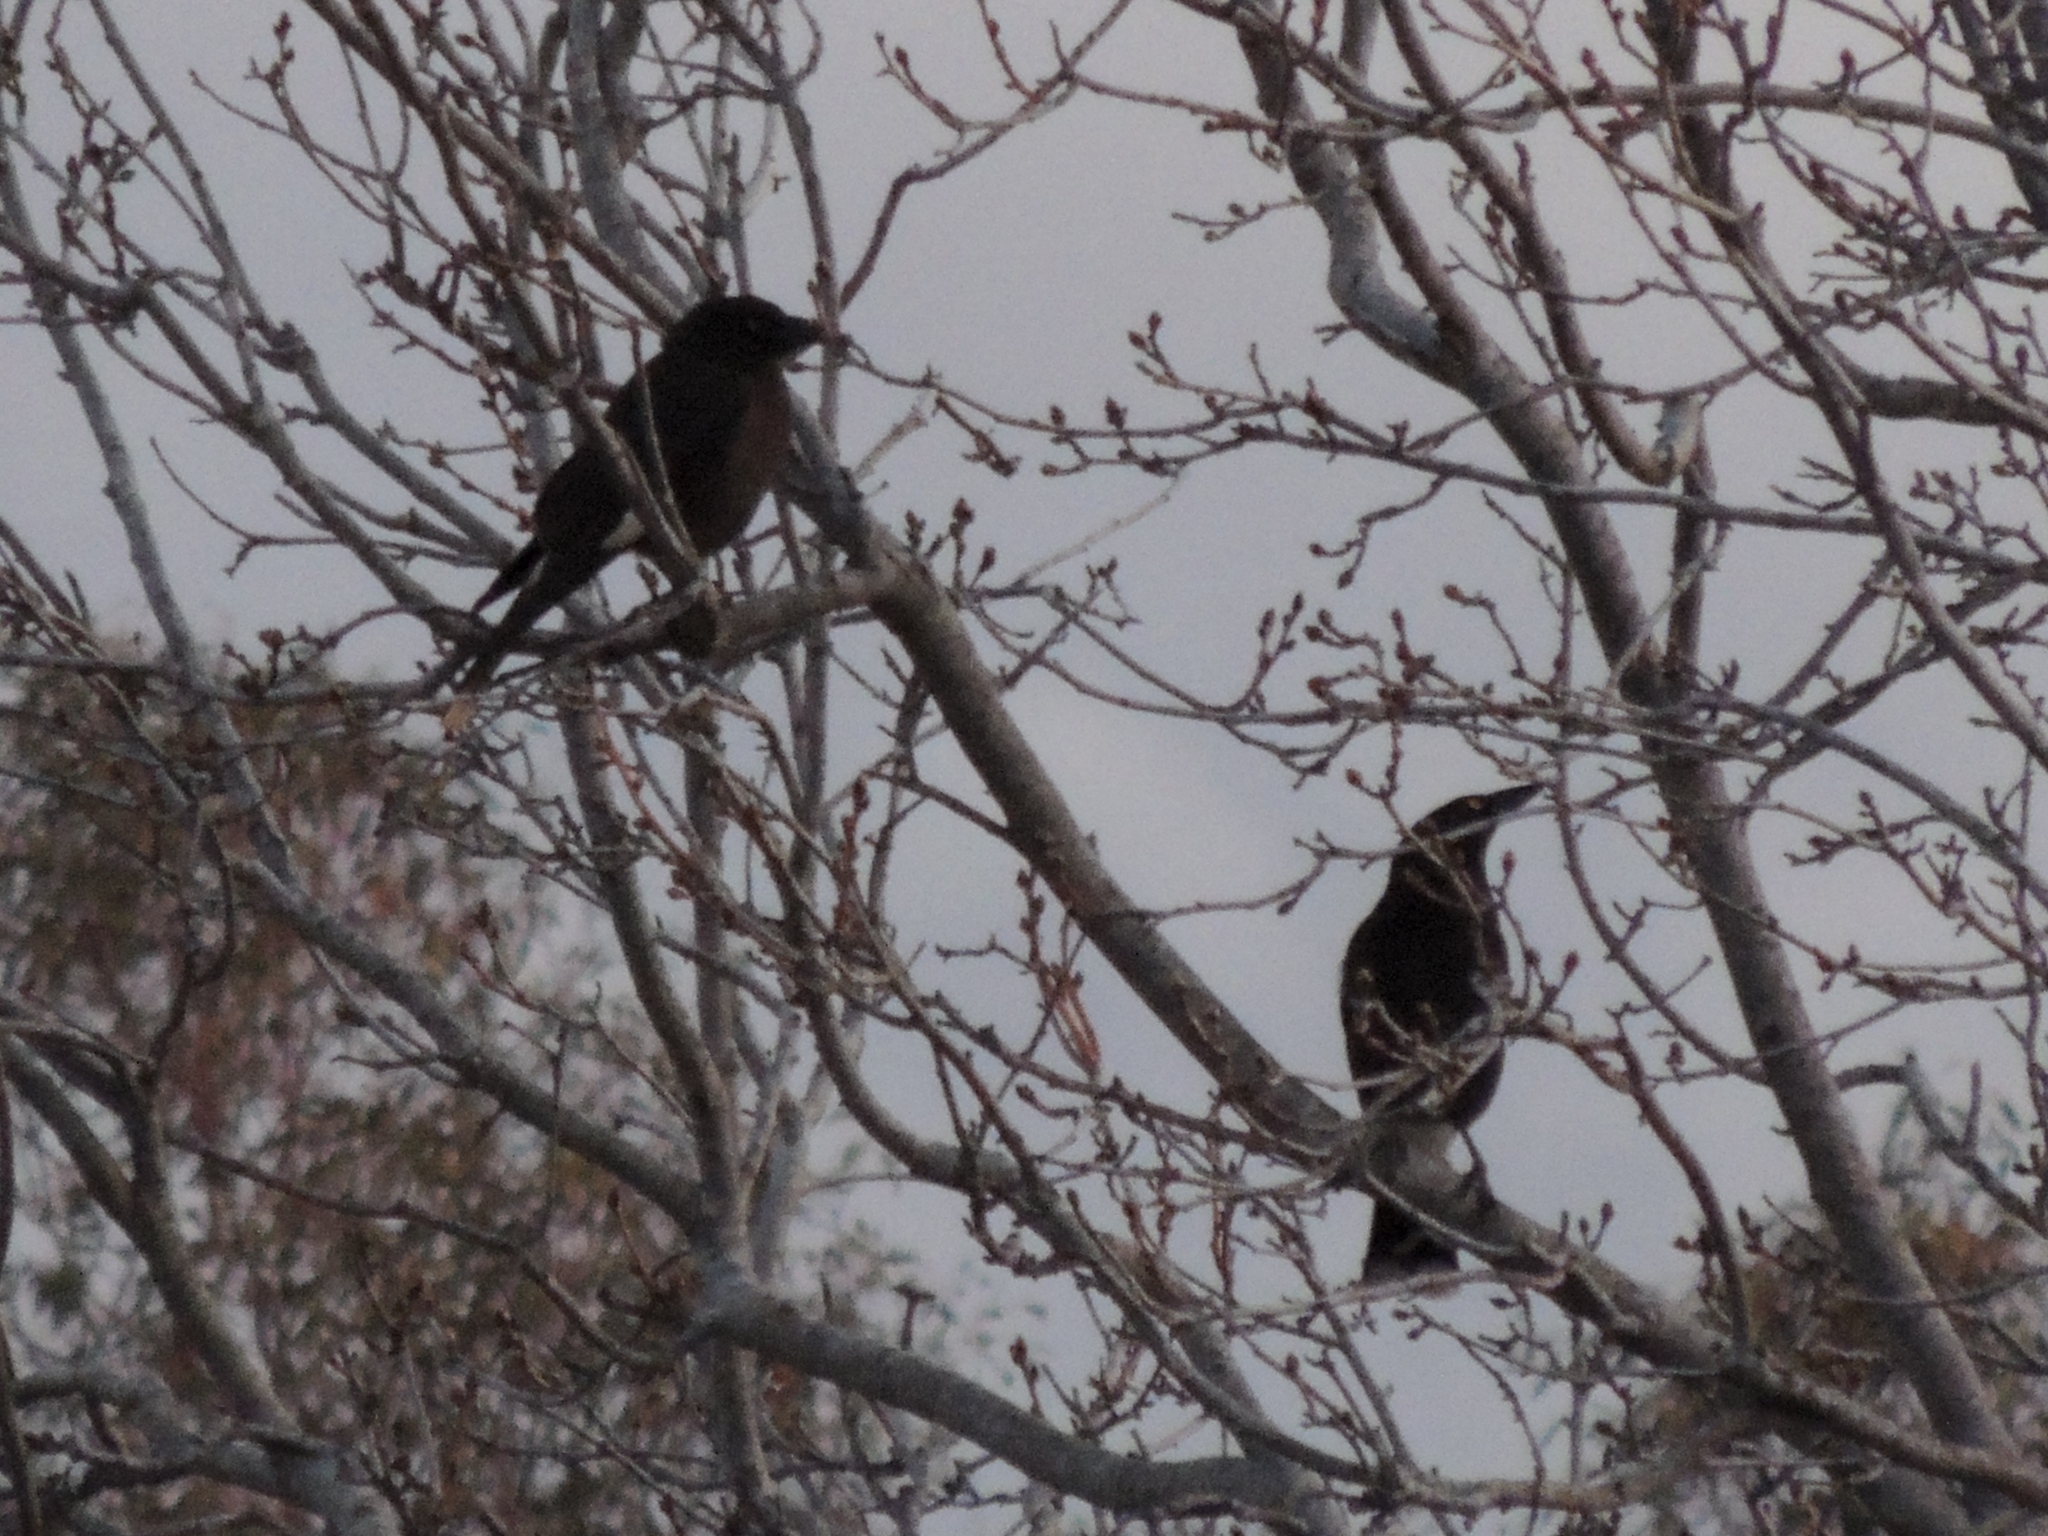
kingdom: Animalia
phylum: Chordata
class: Aves
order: Passeriformes
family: Cracticidae
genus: Strepera
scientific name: Strepera graculina
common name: Pied currawong
